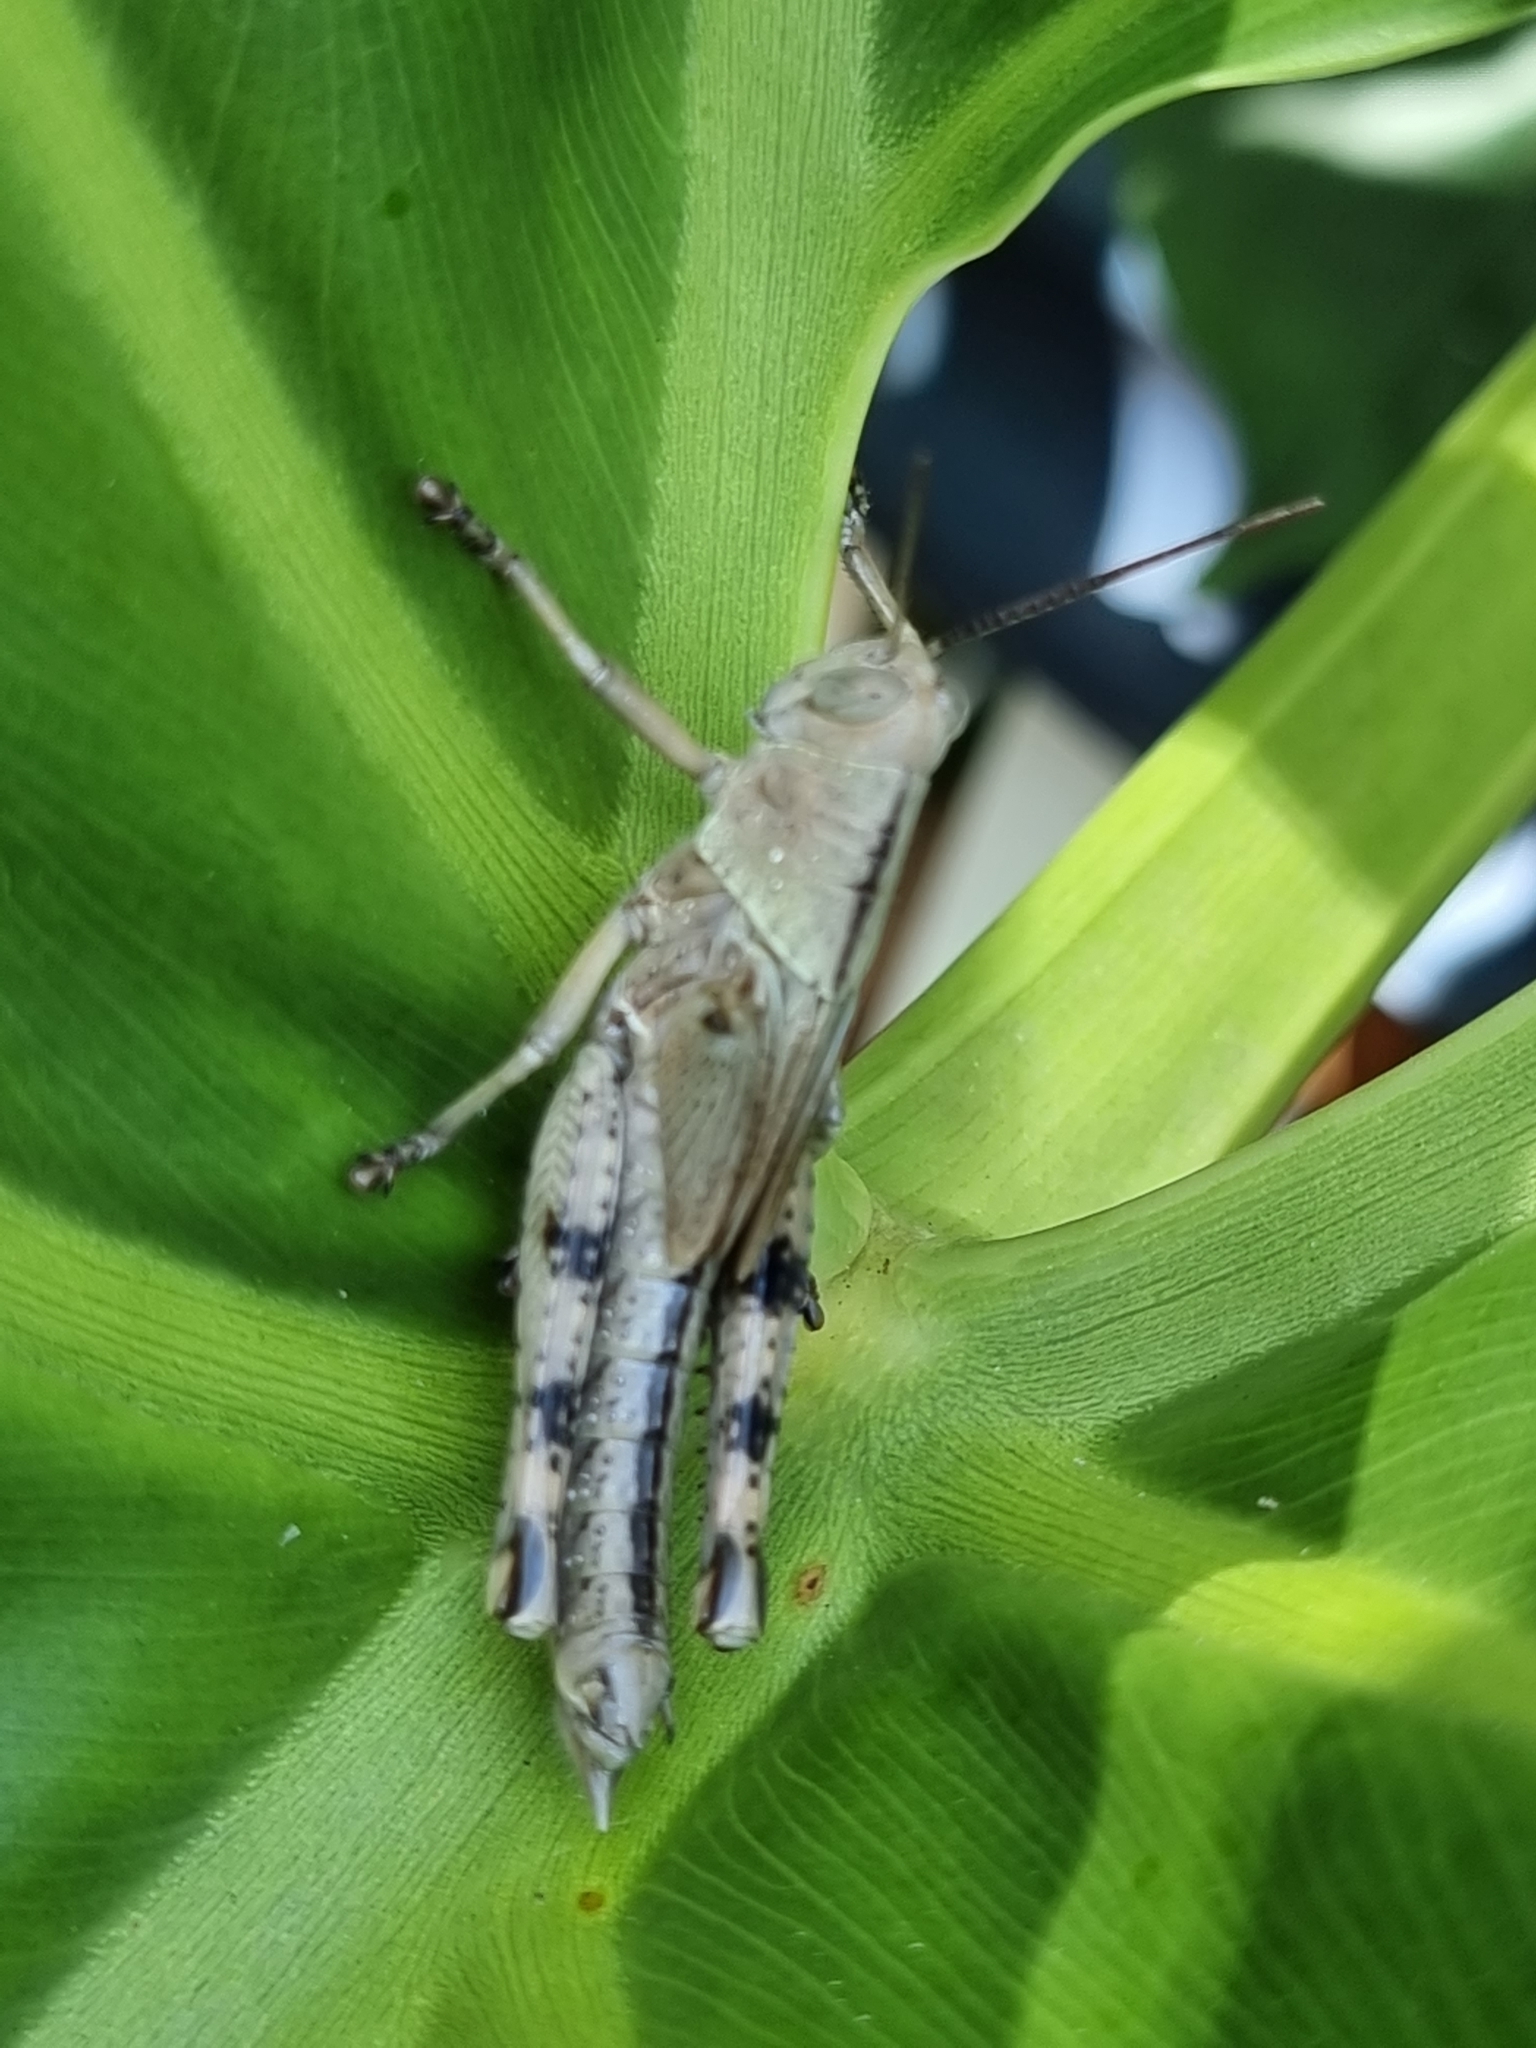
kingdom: Animalia
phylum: Arthropoda
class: Insecta
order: Orthoptera
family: Acrididae
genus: Valanga
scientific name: Valanga irregularis
